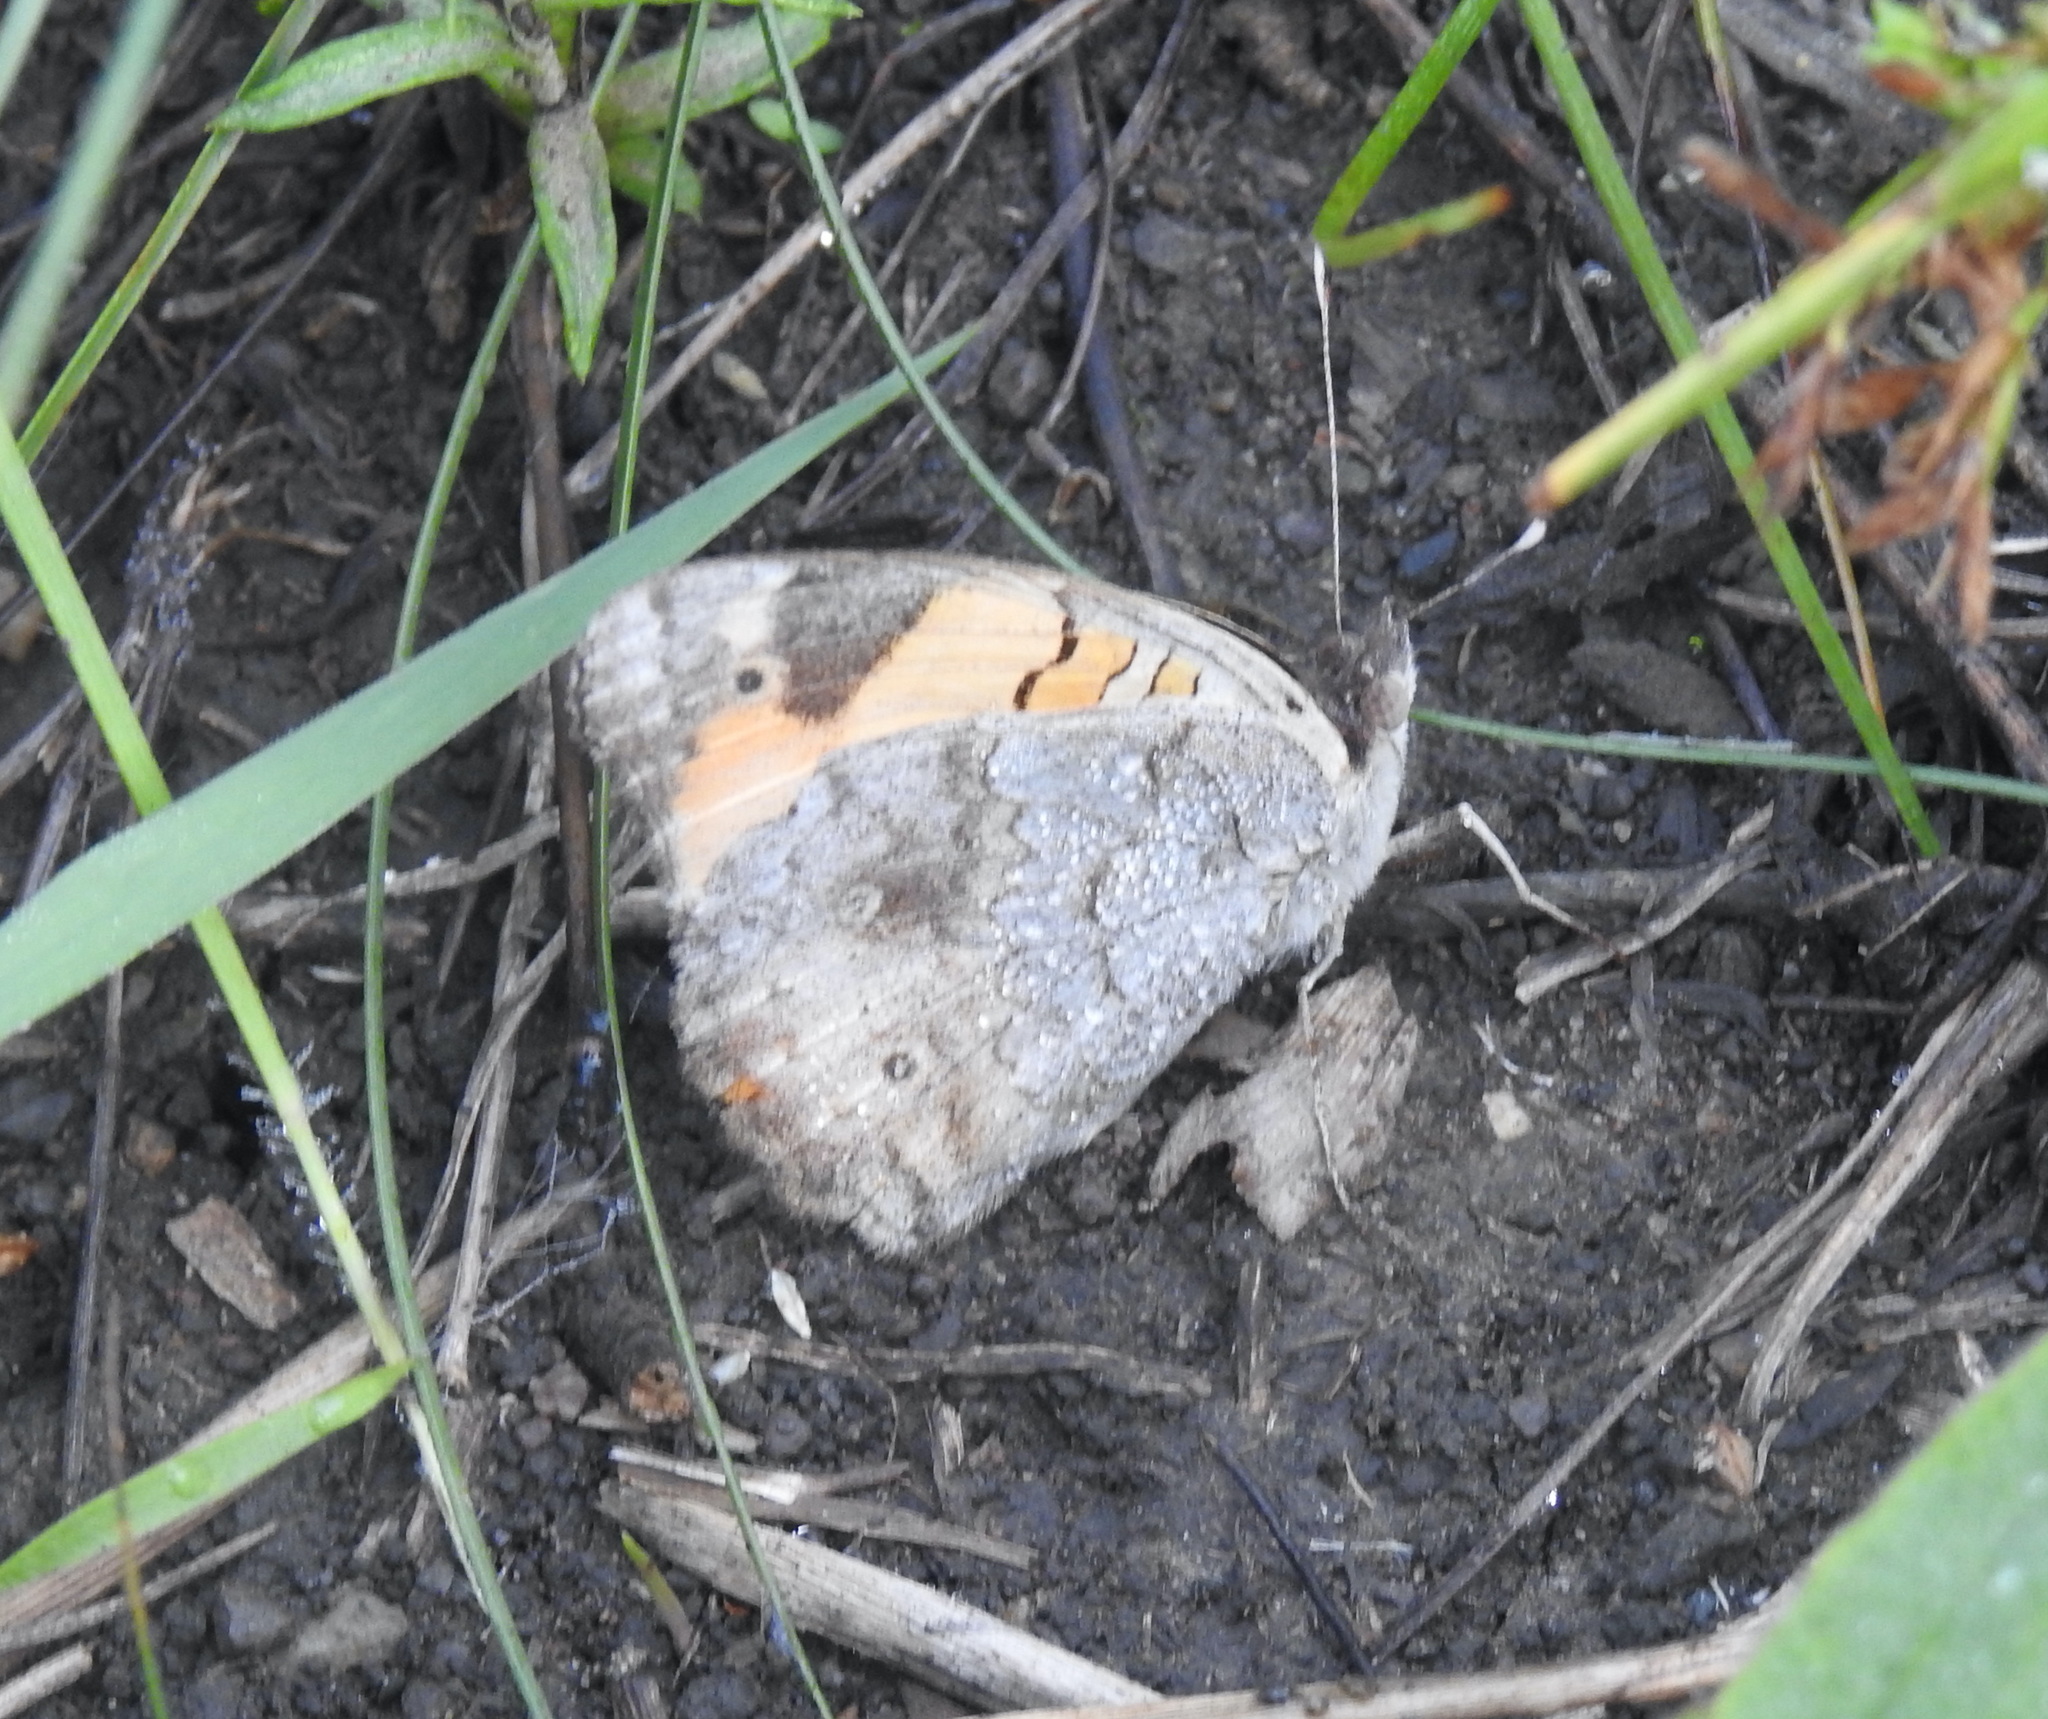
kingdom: Animalia
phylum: Arthropoda
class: Insecta
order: Lepidoptera
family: Nymphalidae
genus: Junonia
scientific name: Junonia hierta
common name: Yellow pansy
